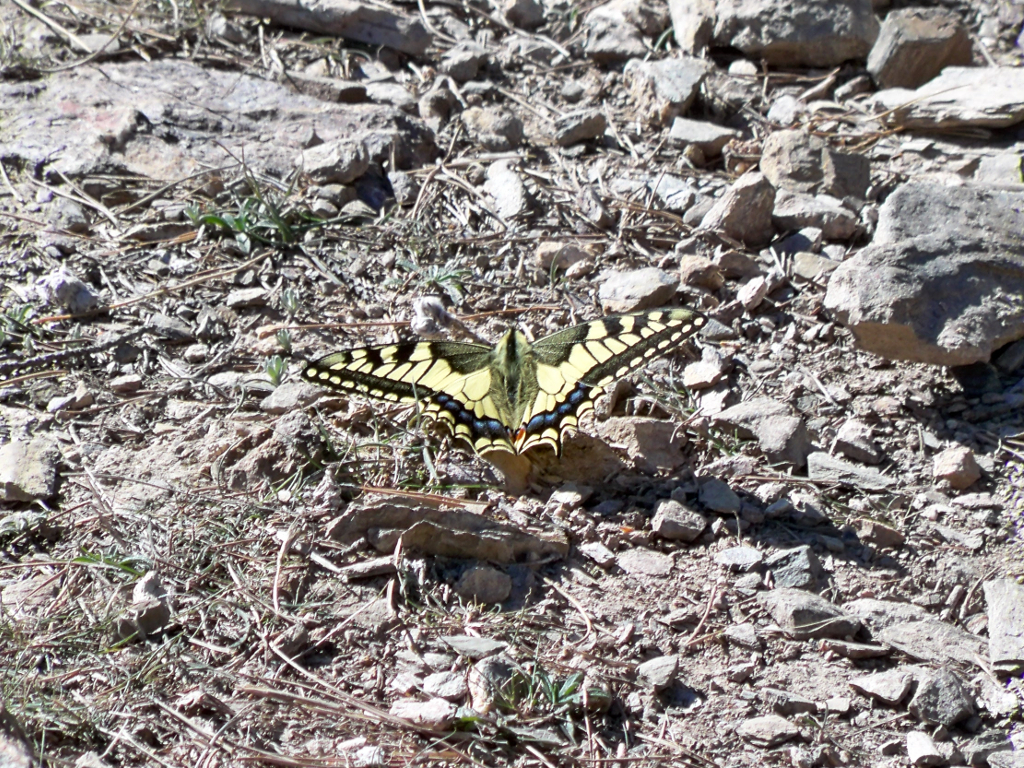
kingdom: Animalia
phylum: Arthropoda
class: Insecta
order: Lepidoptera
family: Papilionidae
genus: Papilio
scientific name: Papilio machaon
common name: Swallowtail
